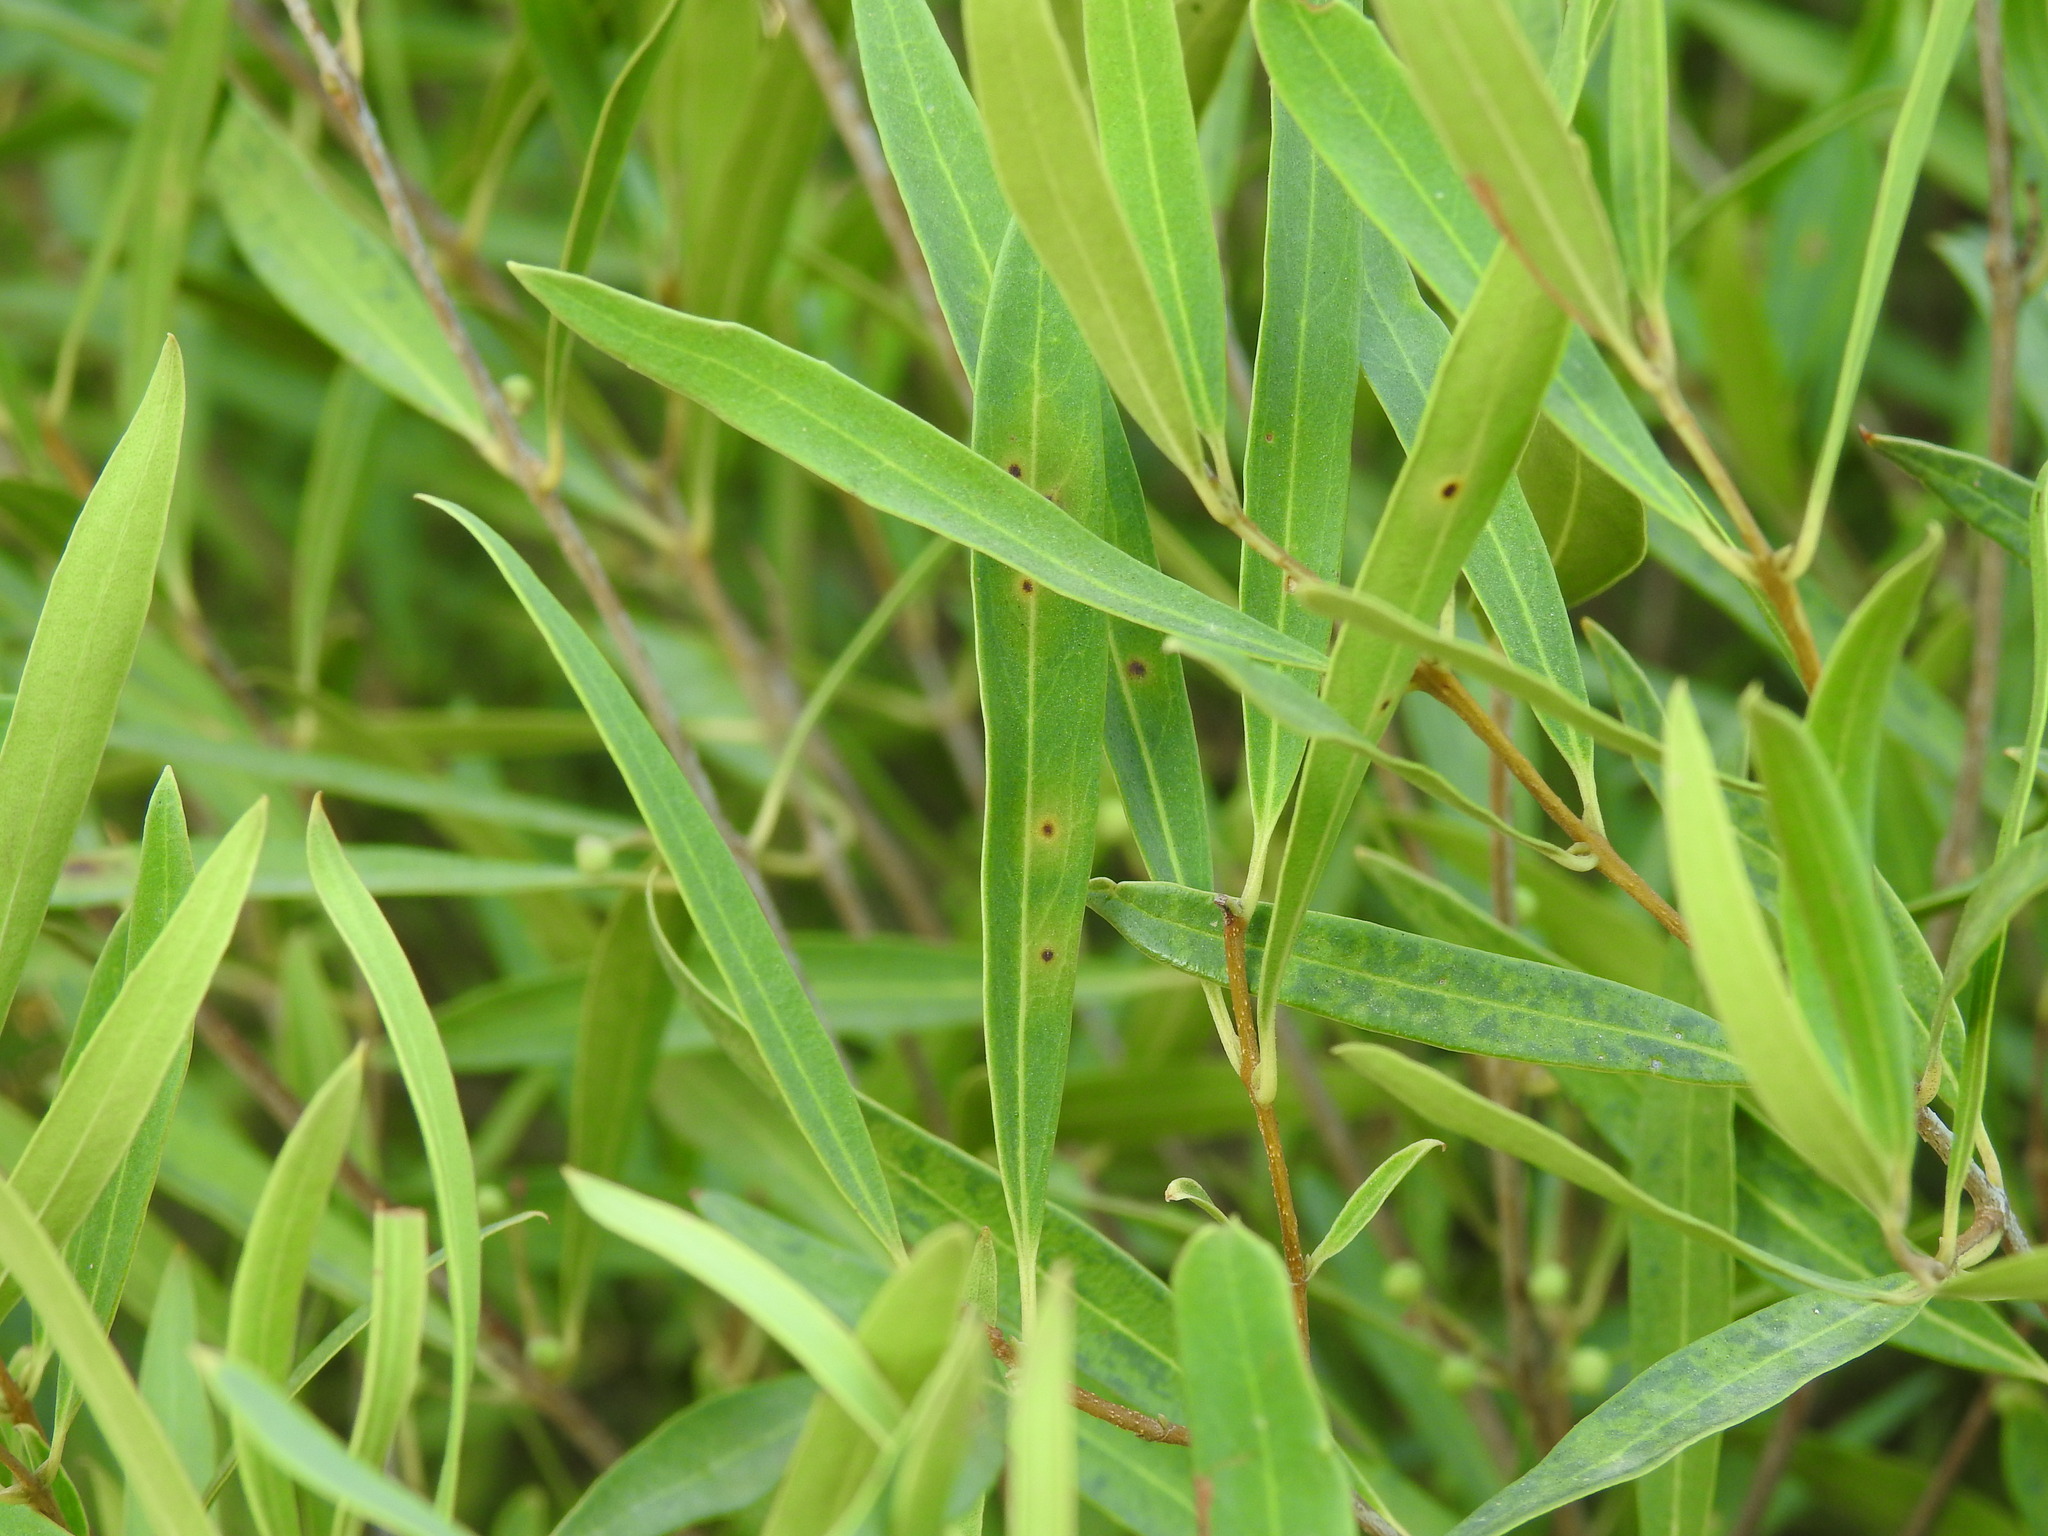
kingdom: Animalia
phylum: Arthropoda
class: Insecta
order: Diptera
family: Cecidomyiidae
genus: Braueriella
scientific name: Braueriella phillyreae
